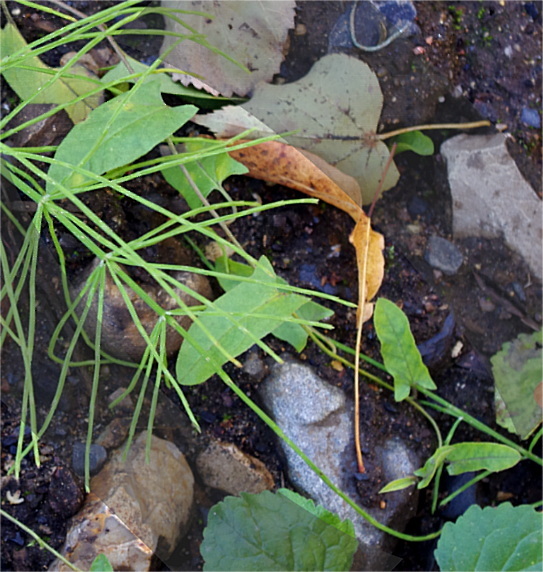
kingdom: Plantae
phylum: Tracheophyta
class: Magnoliopsida
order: Solanales
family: Convolvulaceae
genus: Convolvulus
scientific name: Convolvulus arvensis
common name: Field bindweed
